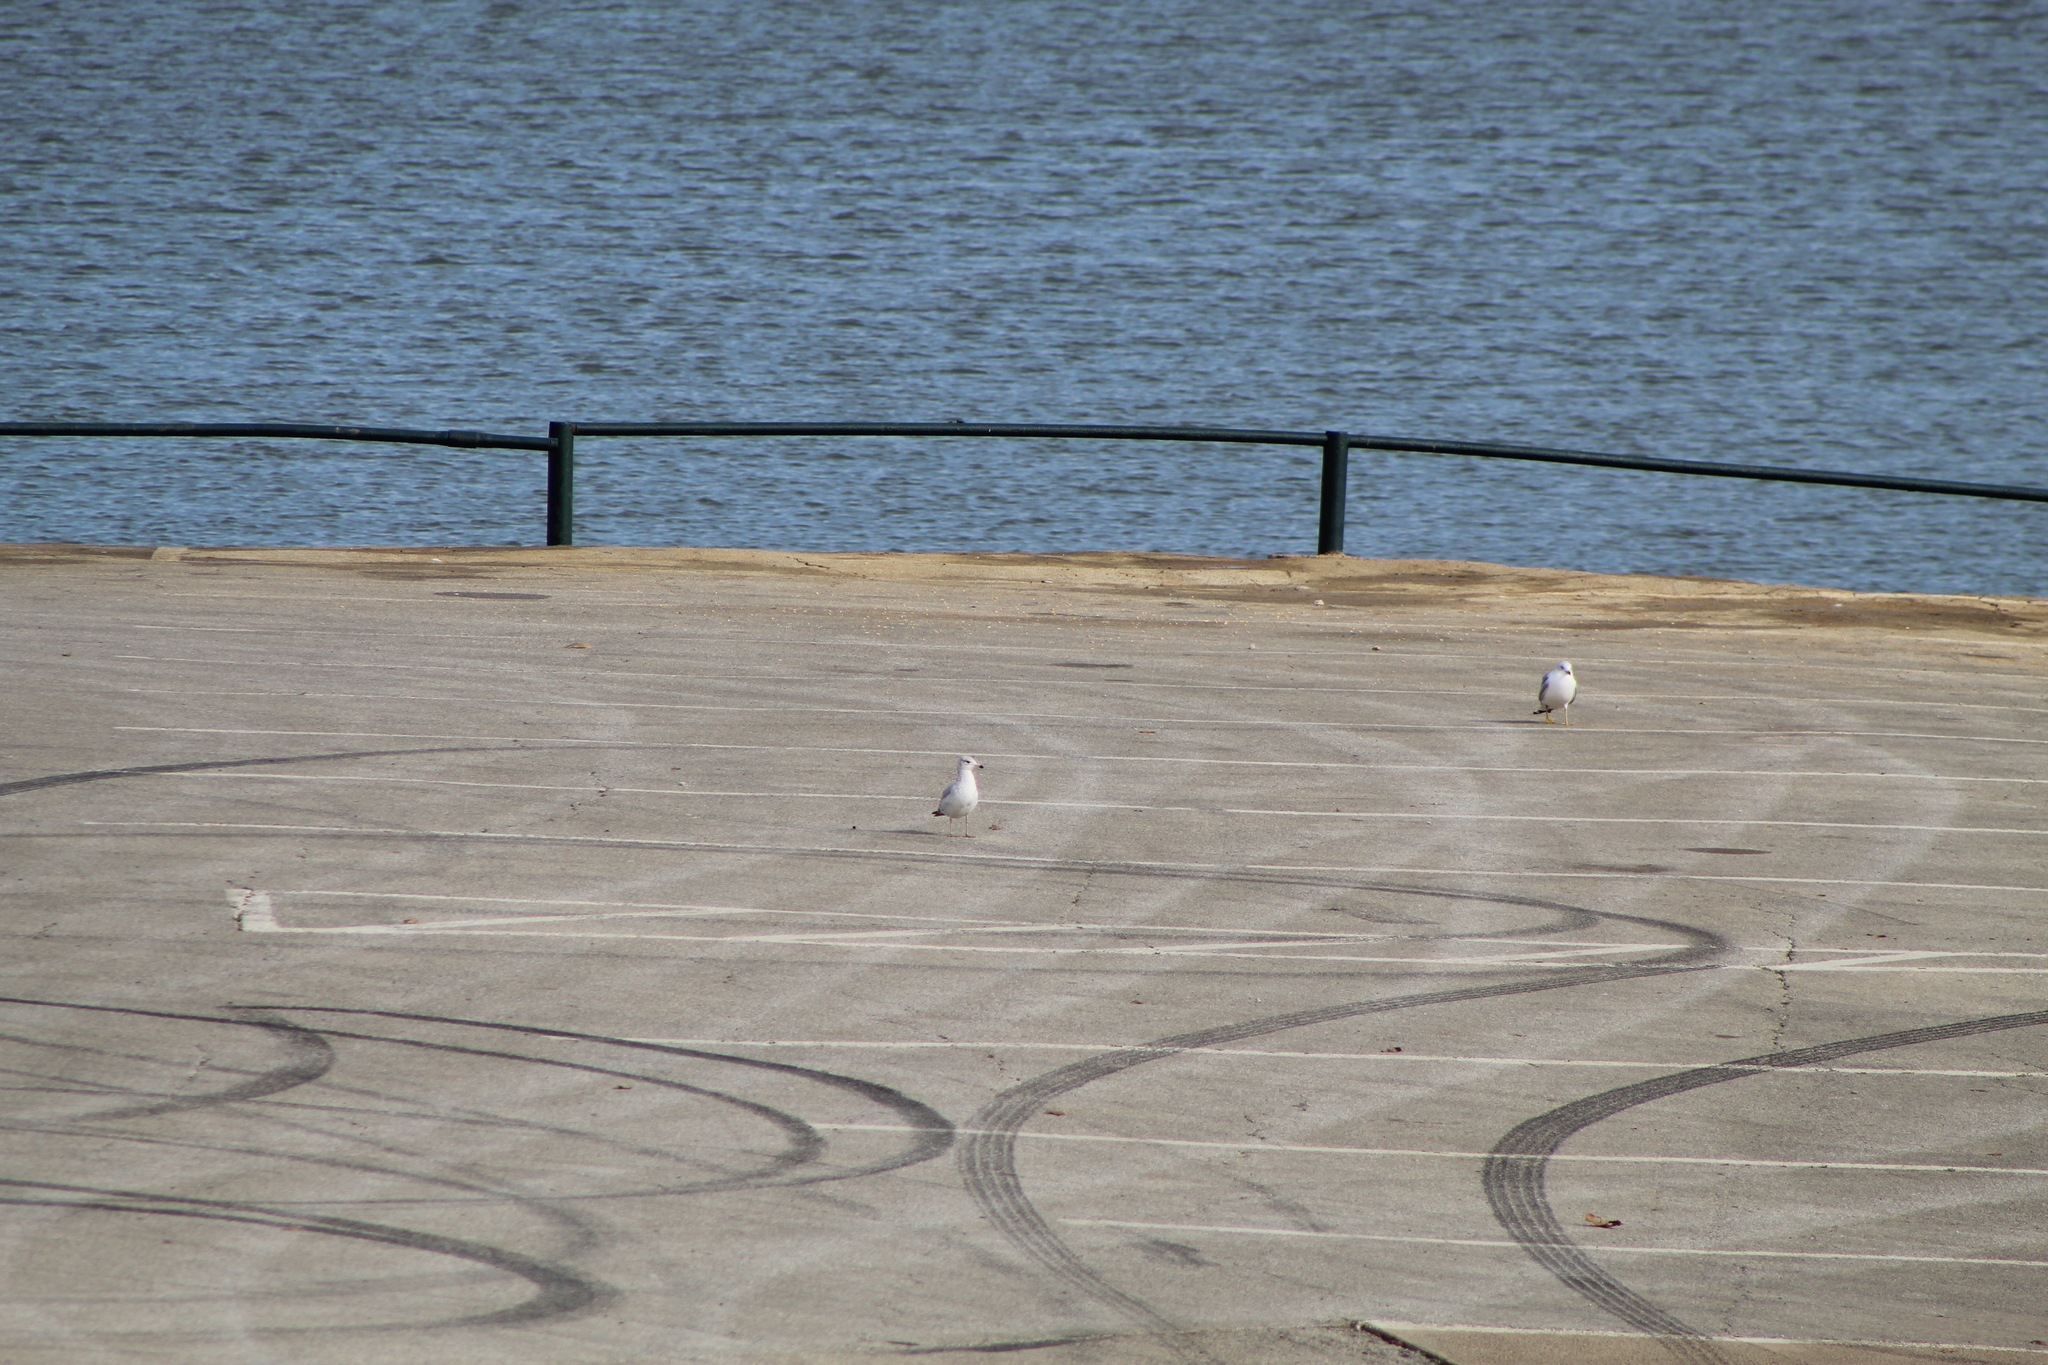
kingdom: Animalia
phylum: Chordata
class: Aves
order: Charadriiformes
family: Laridae
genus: Larus
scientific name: Larus delawarensis
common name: Ring-billed gull
